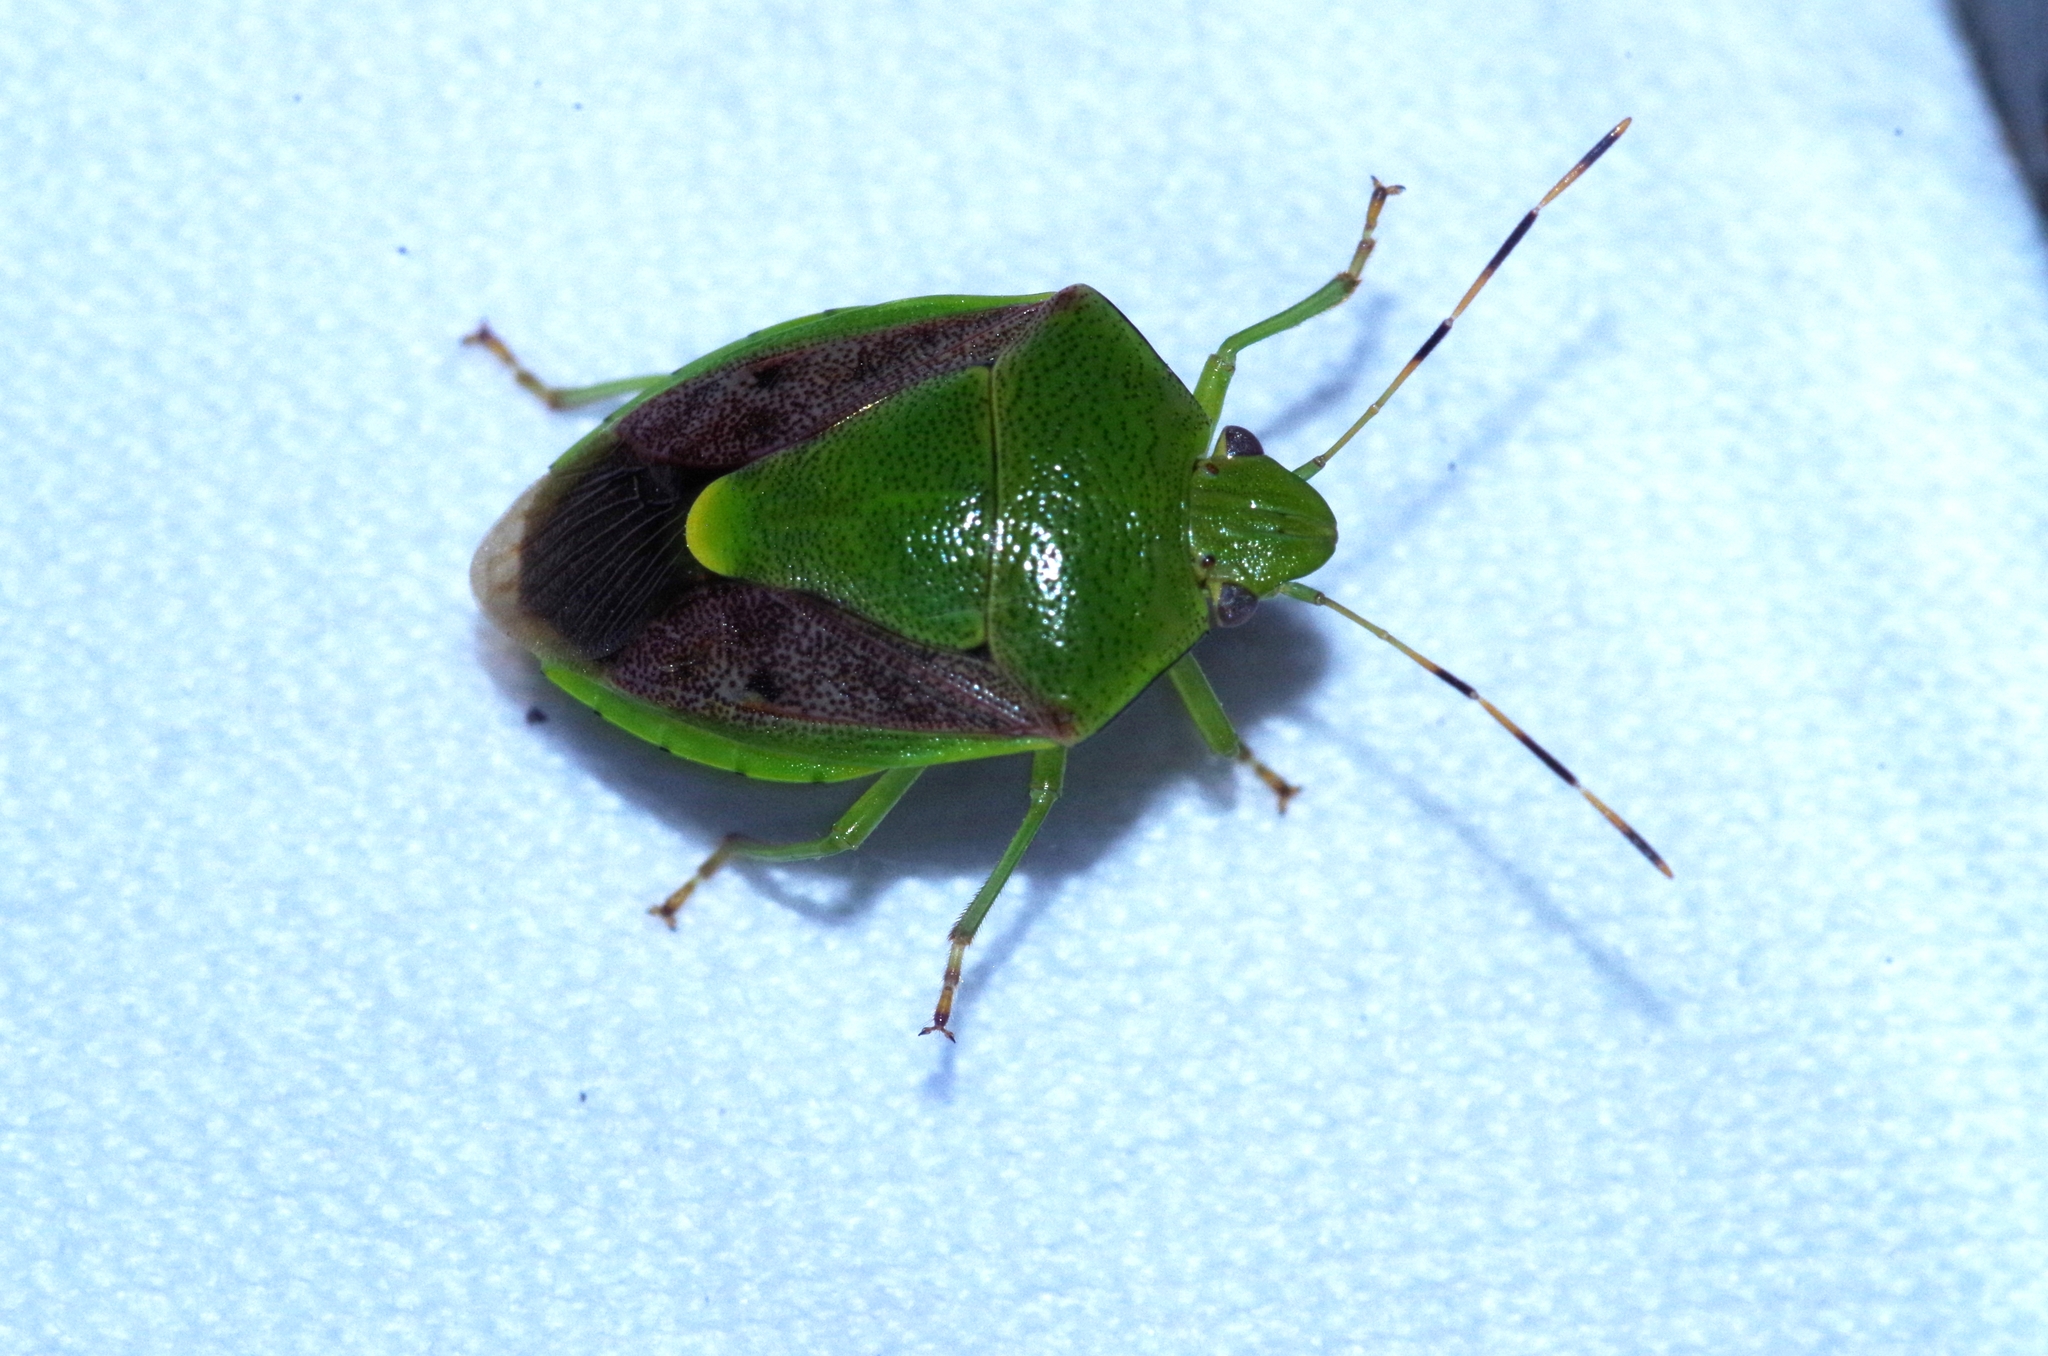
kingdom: Animalia
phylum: Arthropoda
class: Insecta
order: Hemiptera
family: Pentatomidae
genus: Plautia
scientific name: Plautia stali
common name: Stink bug
